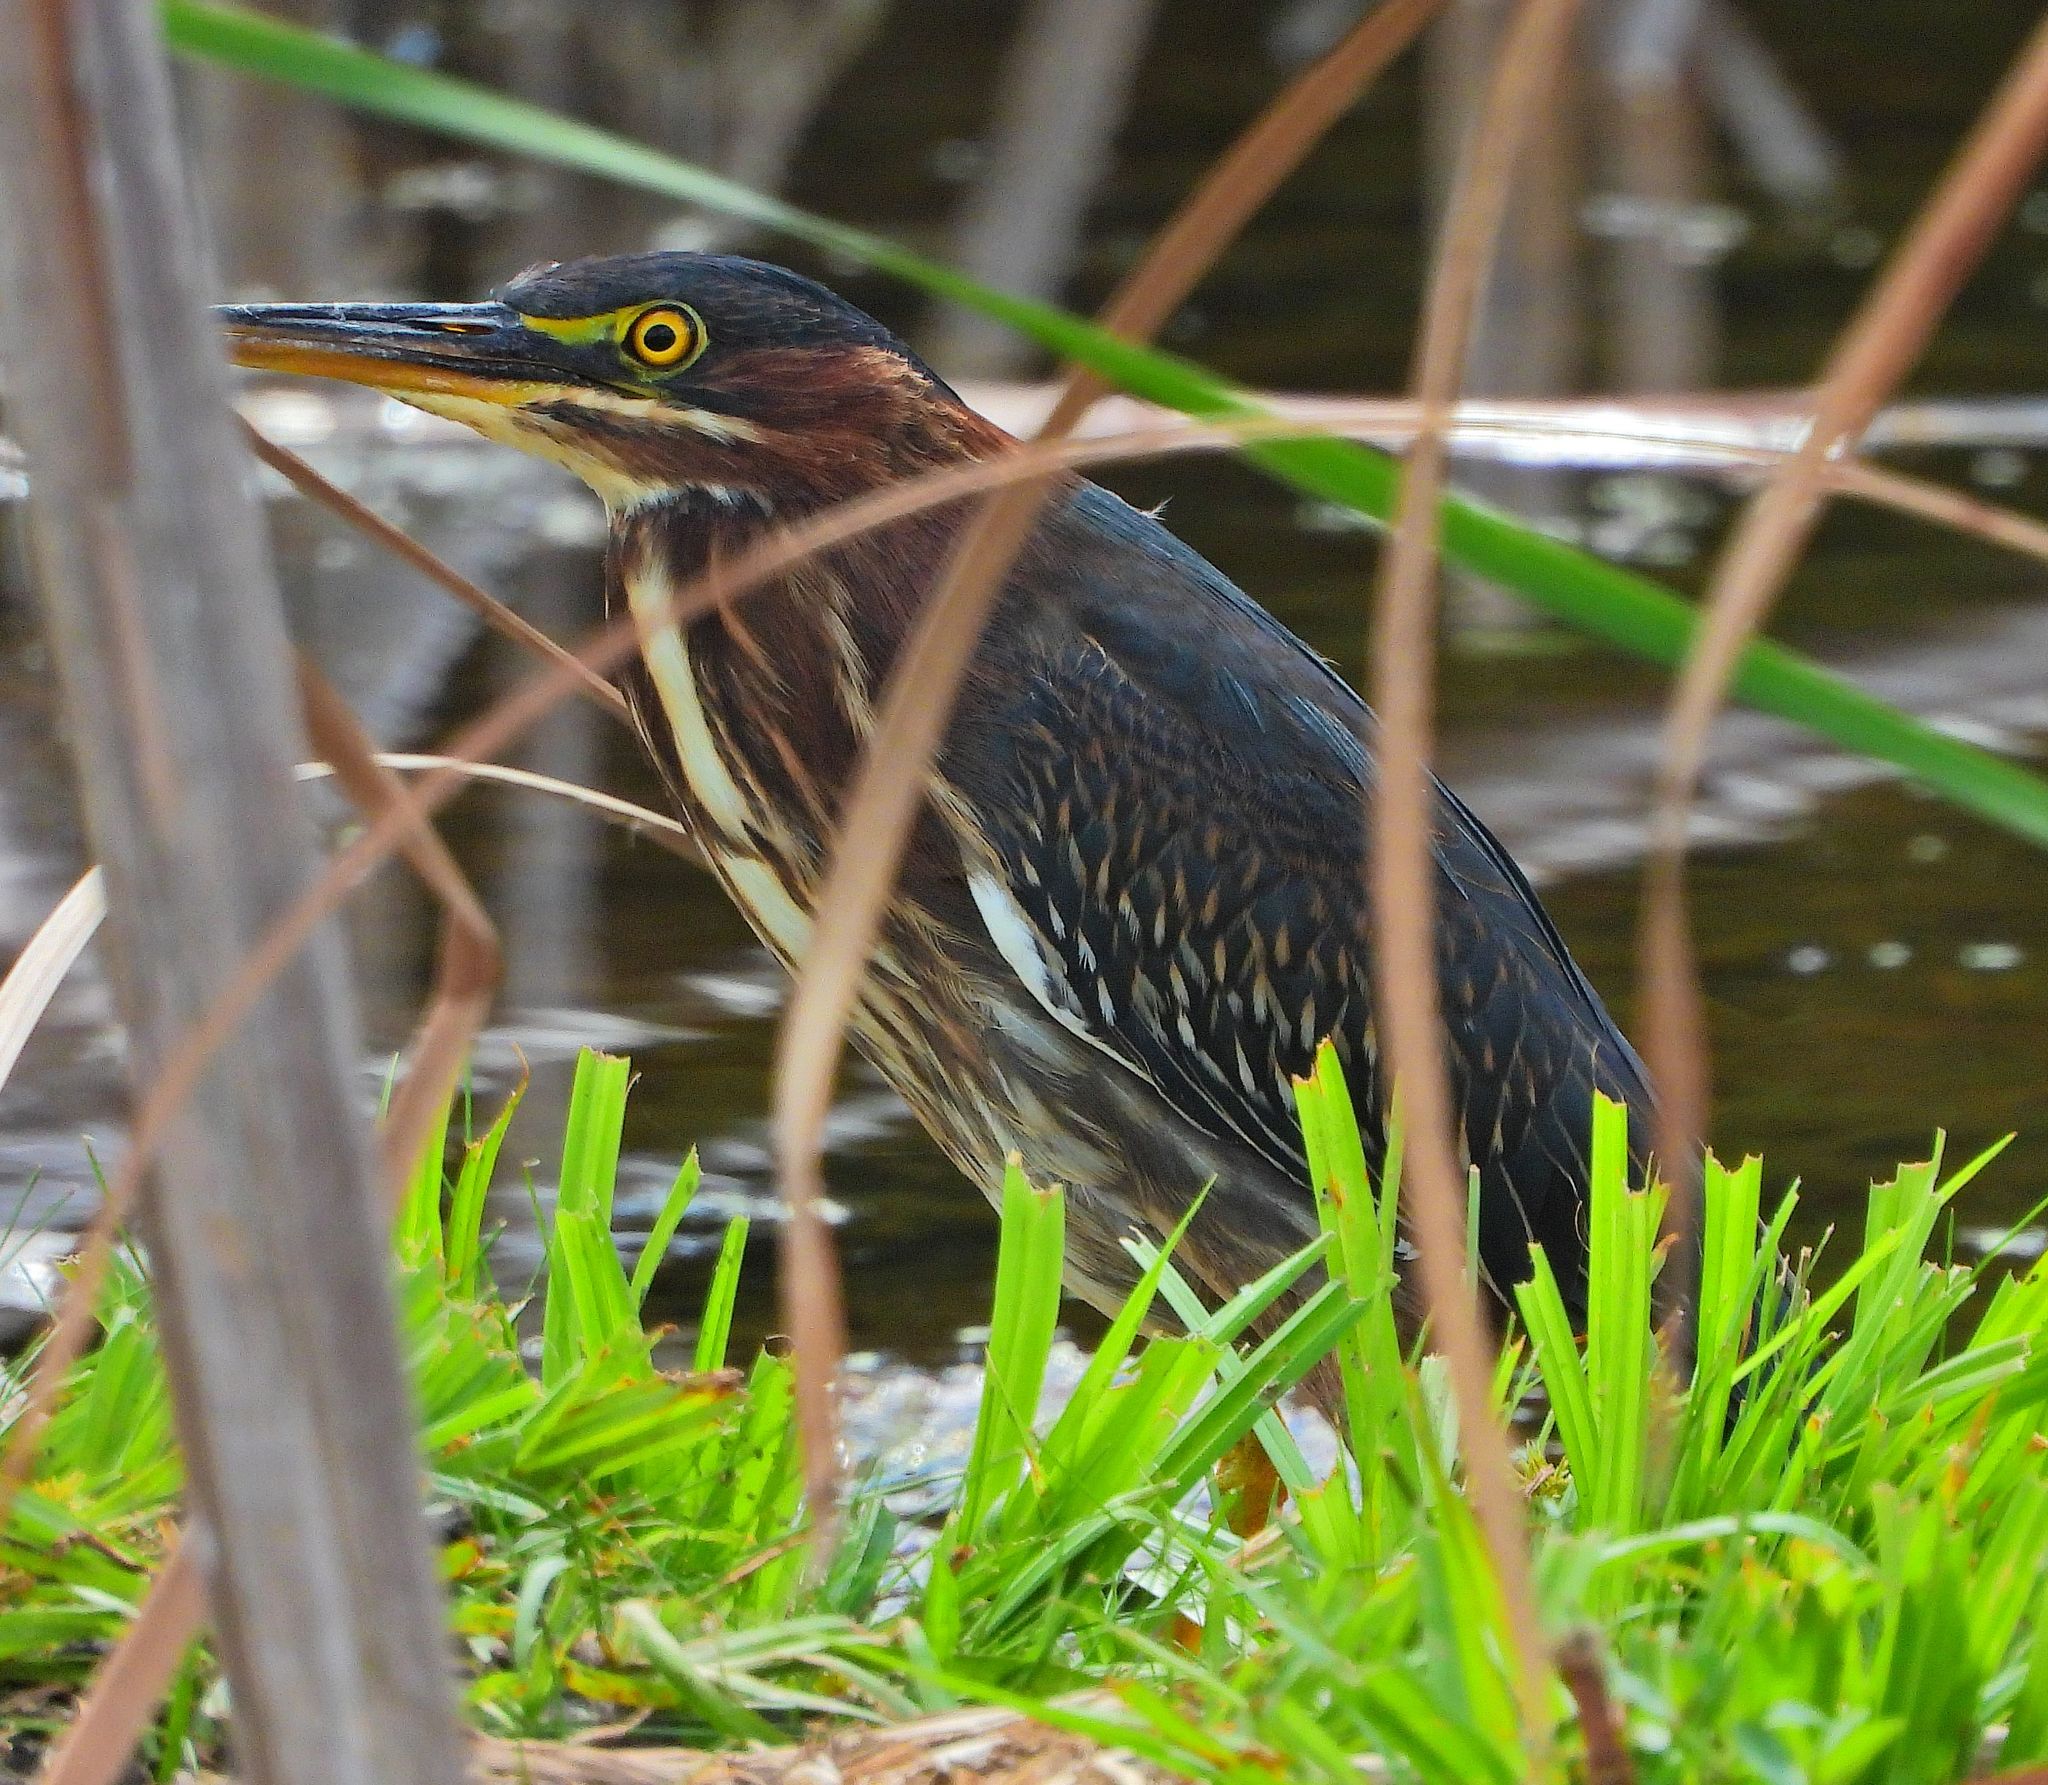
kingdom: Animalia
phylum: Chordata
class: Aves
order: Pelecaniformes
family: Ardeidae
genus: Butorides
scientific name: Butorides virescens
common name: Green heron
